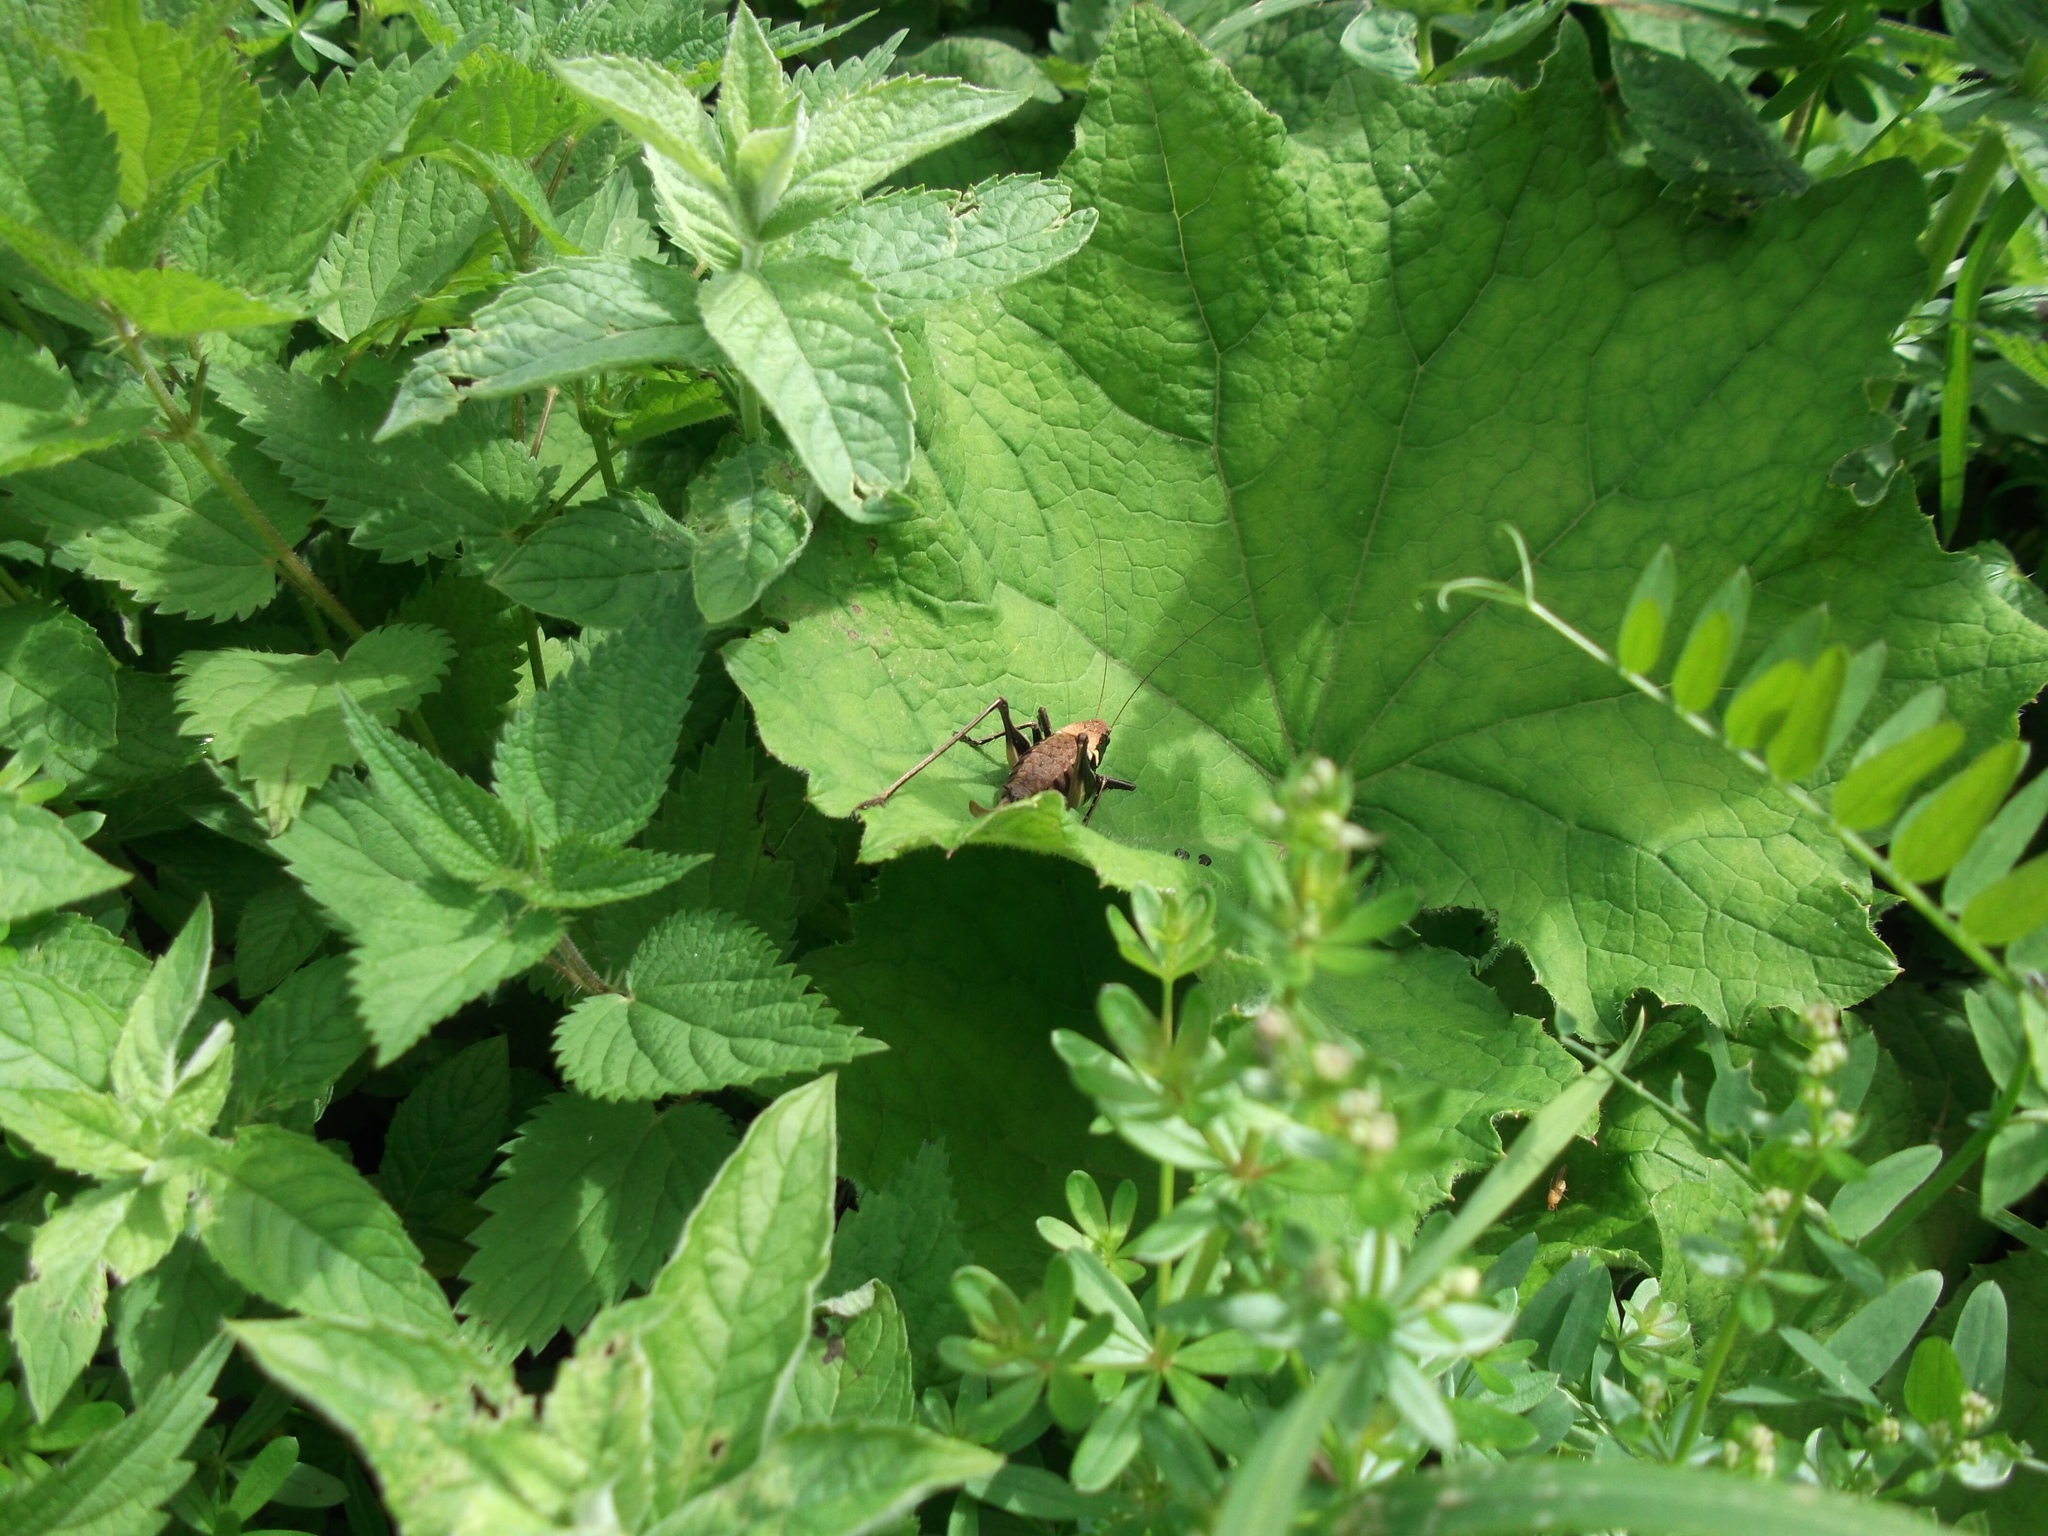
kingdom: Animalia
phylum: Arthropoda
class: Insecta
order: Orthoptera
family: Tettigoniidae
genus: Pholidoptera
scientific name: Pholidoptera aptera
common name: Alpine dark bush-cricket
